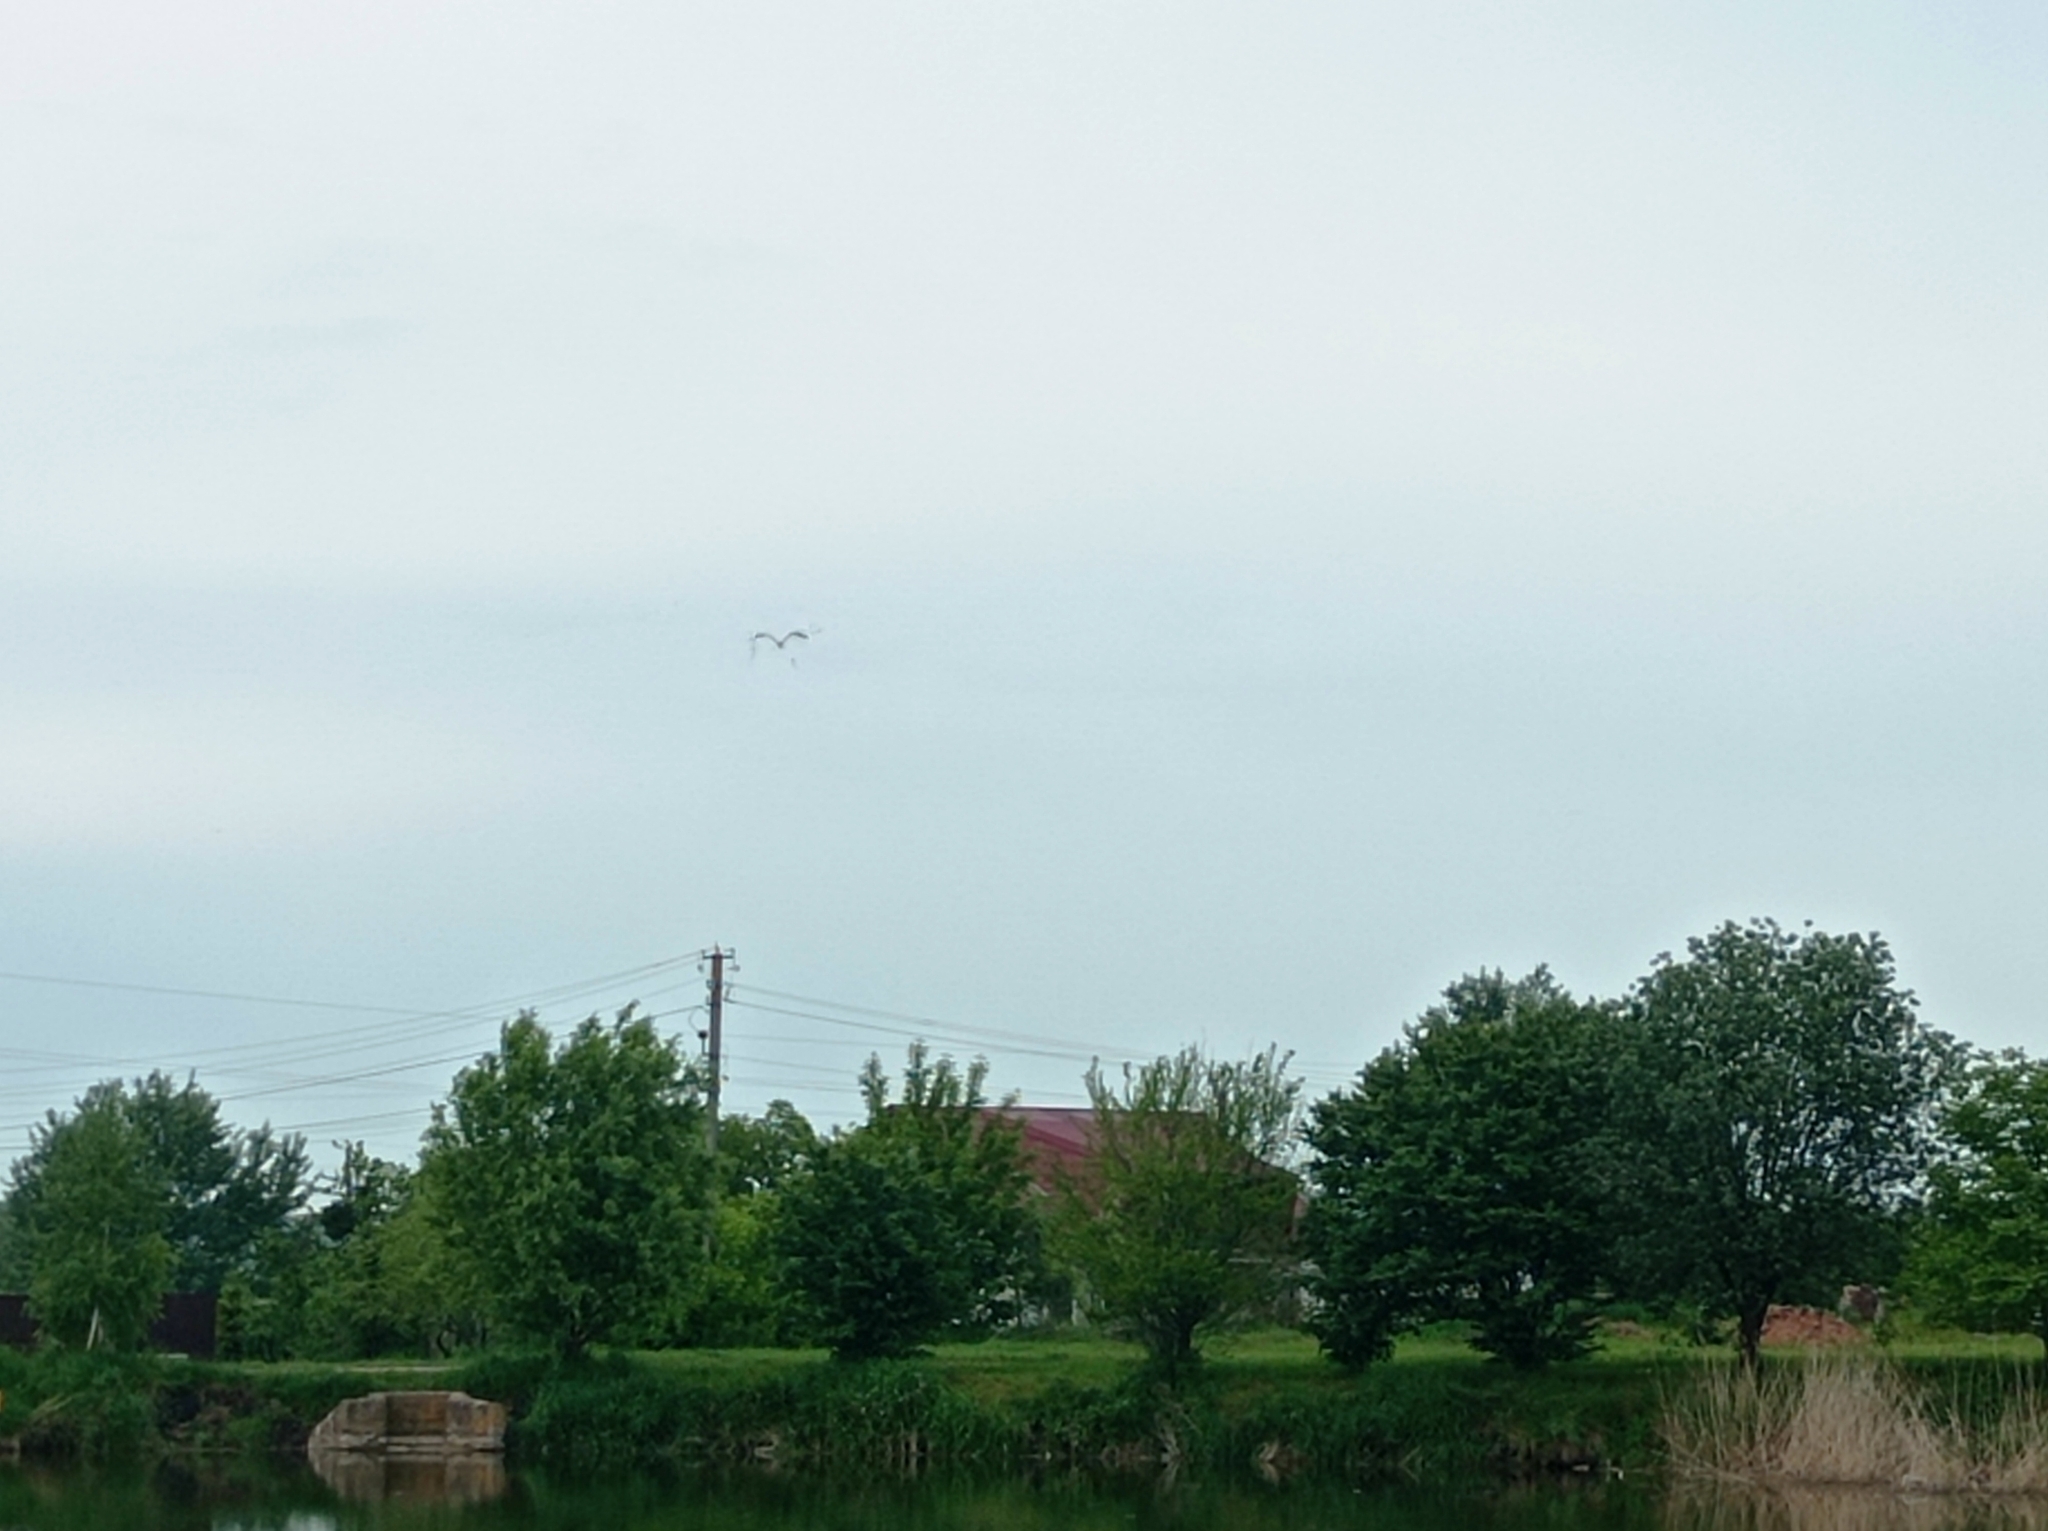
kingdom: Animalia
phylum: Chordata
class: Aves
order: Pelecaniformes
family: Ardeidae
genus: Ardea
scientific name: Ardea cinerea
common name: Grey heron
